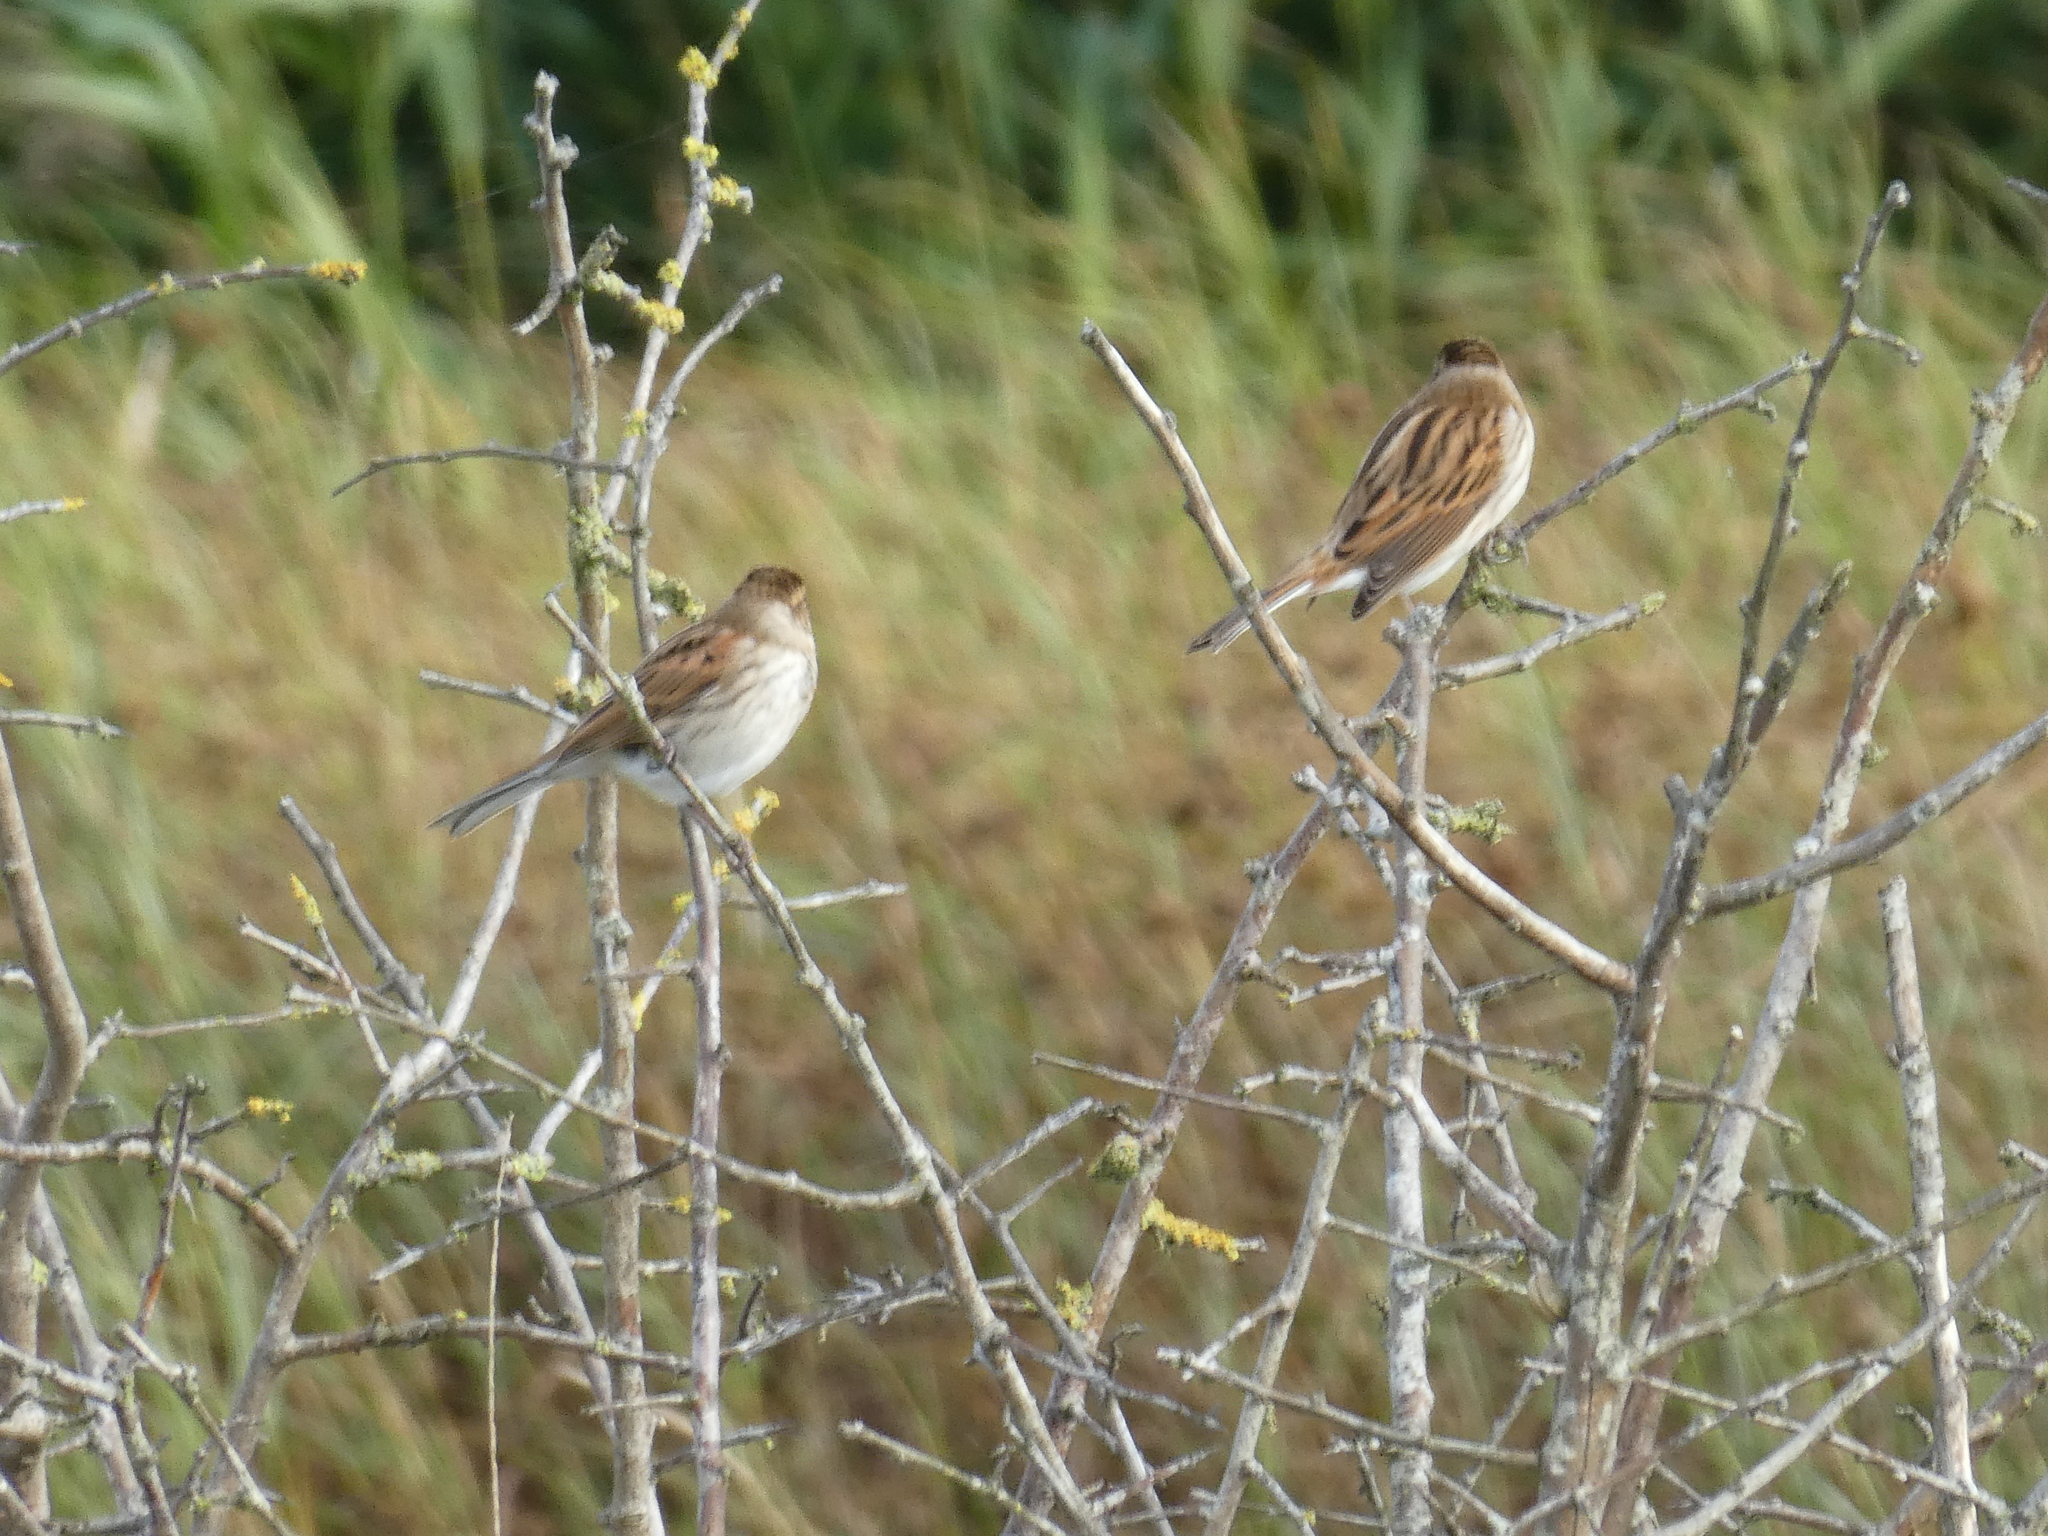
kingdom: Animalia
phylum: Chordata
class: Aves
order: Passeriformes
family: Emberizidae
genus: Emberiza
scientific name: Emberiza schoeniclus
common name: Reed bunting
